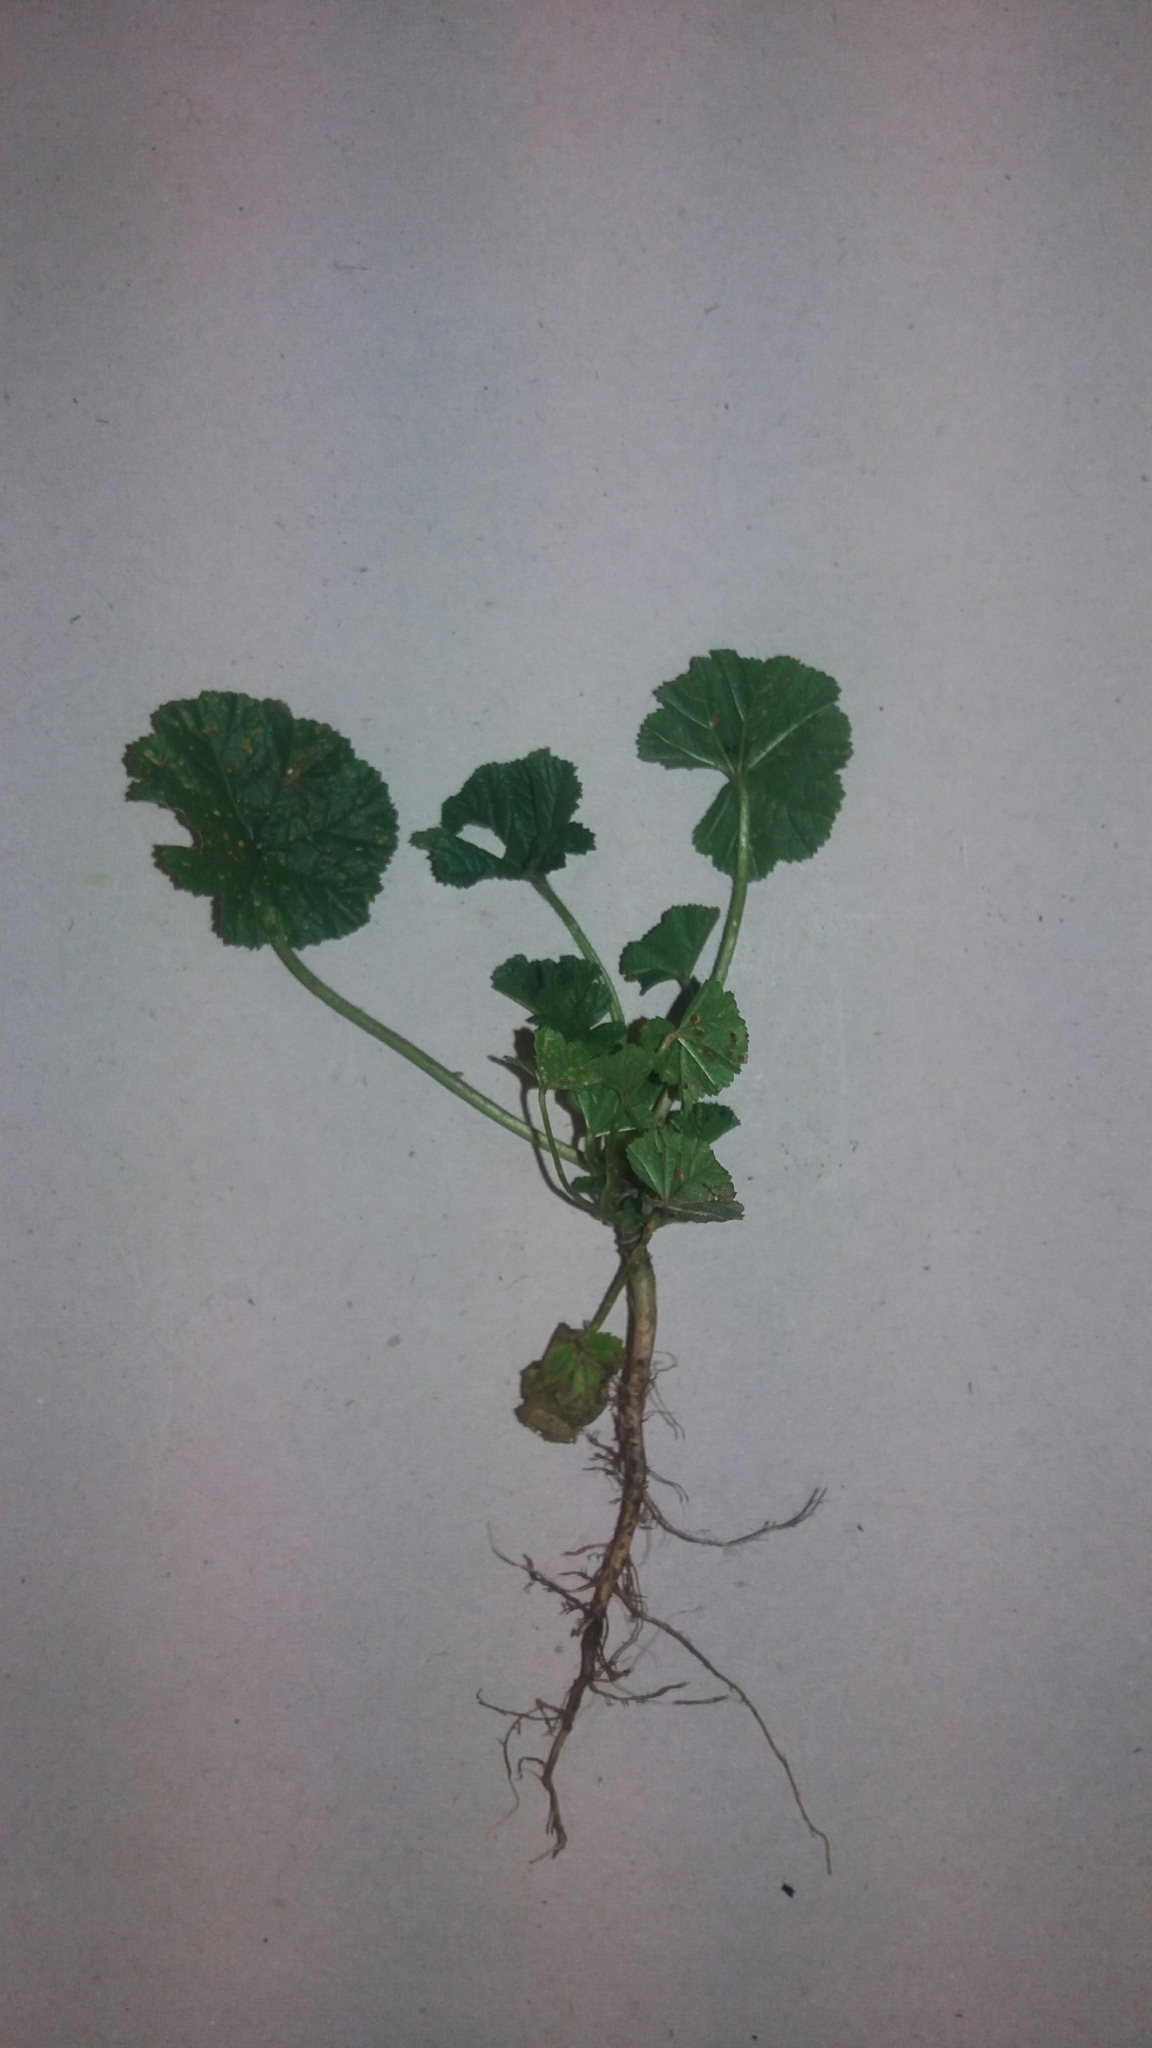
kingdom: Plantae
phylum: Tracheophyta
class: Magnoliopsida
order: Malvales
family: Malvaceae
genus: Malva
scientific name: Malva sylvestris
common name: Common mallow
